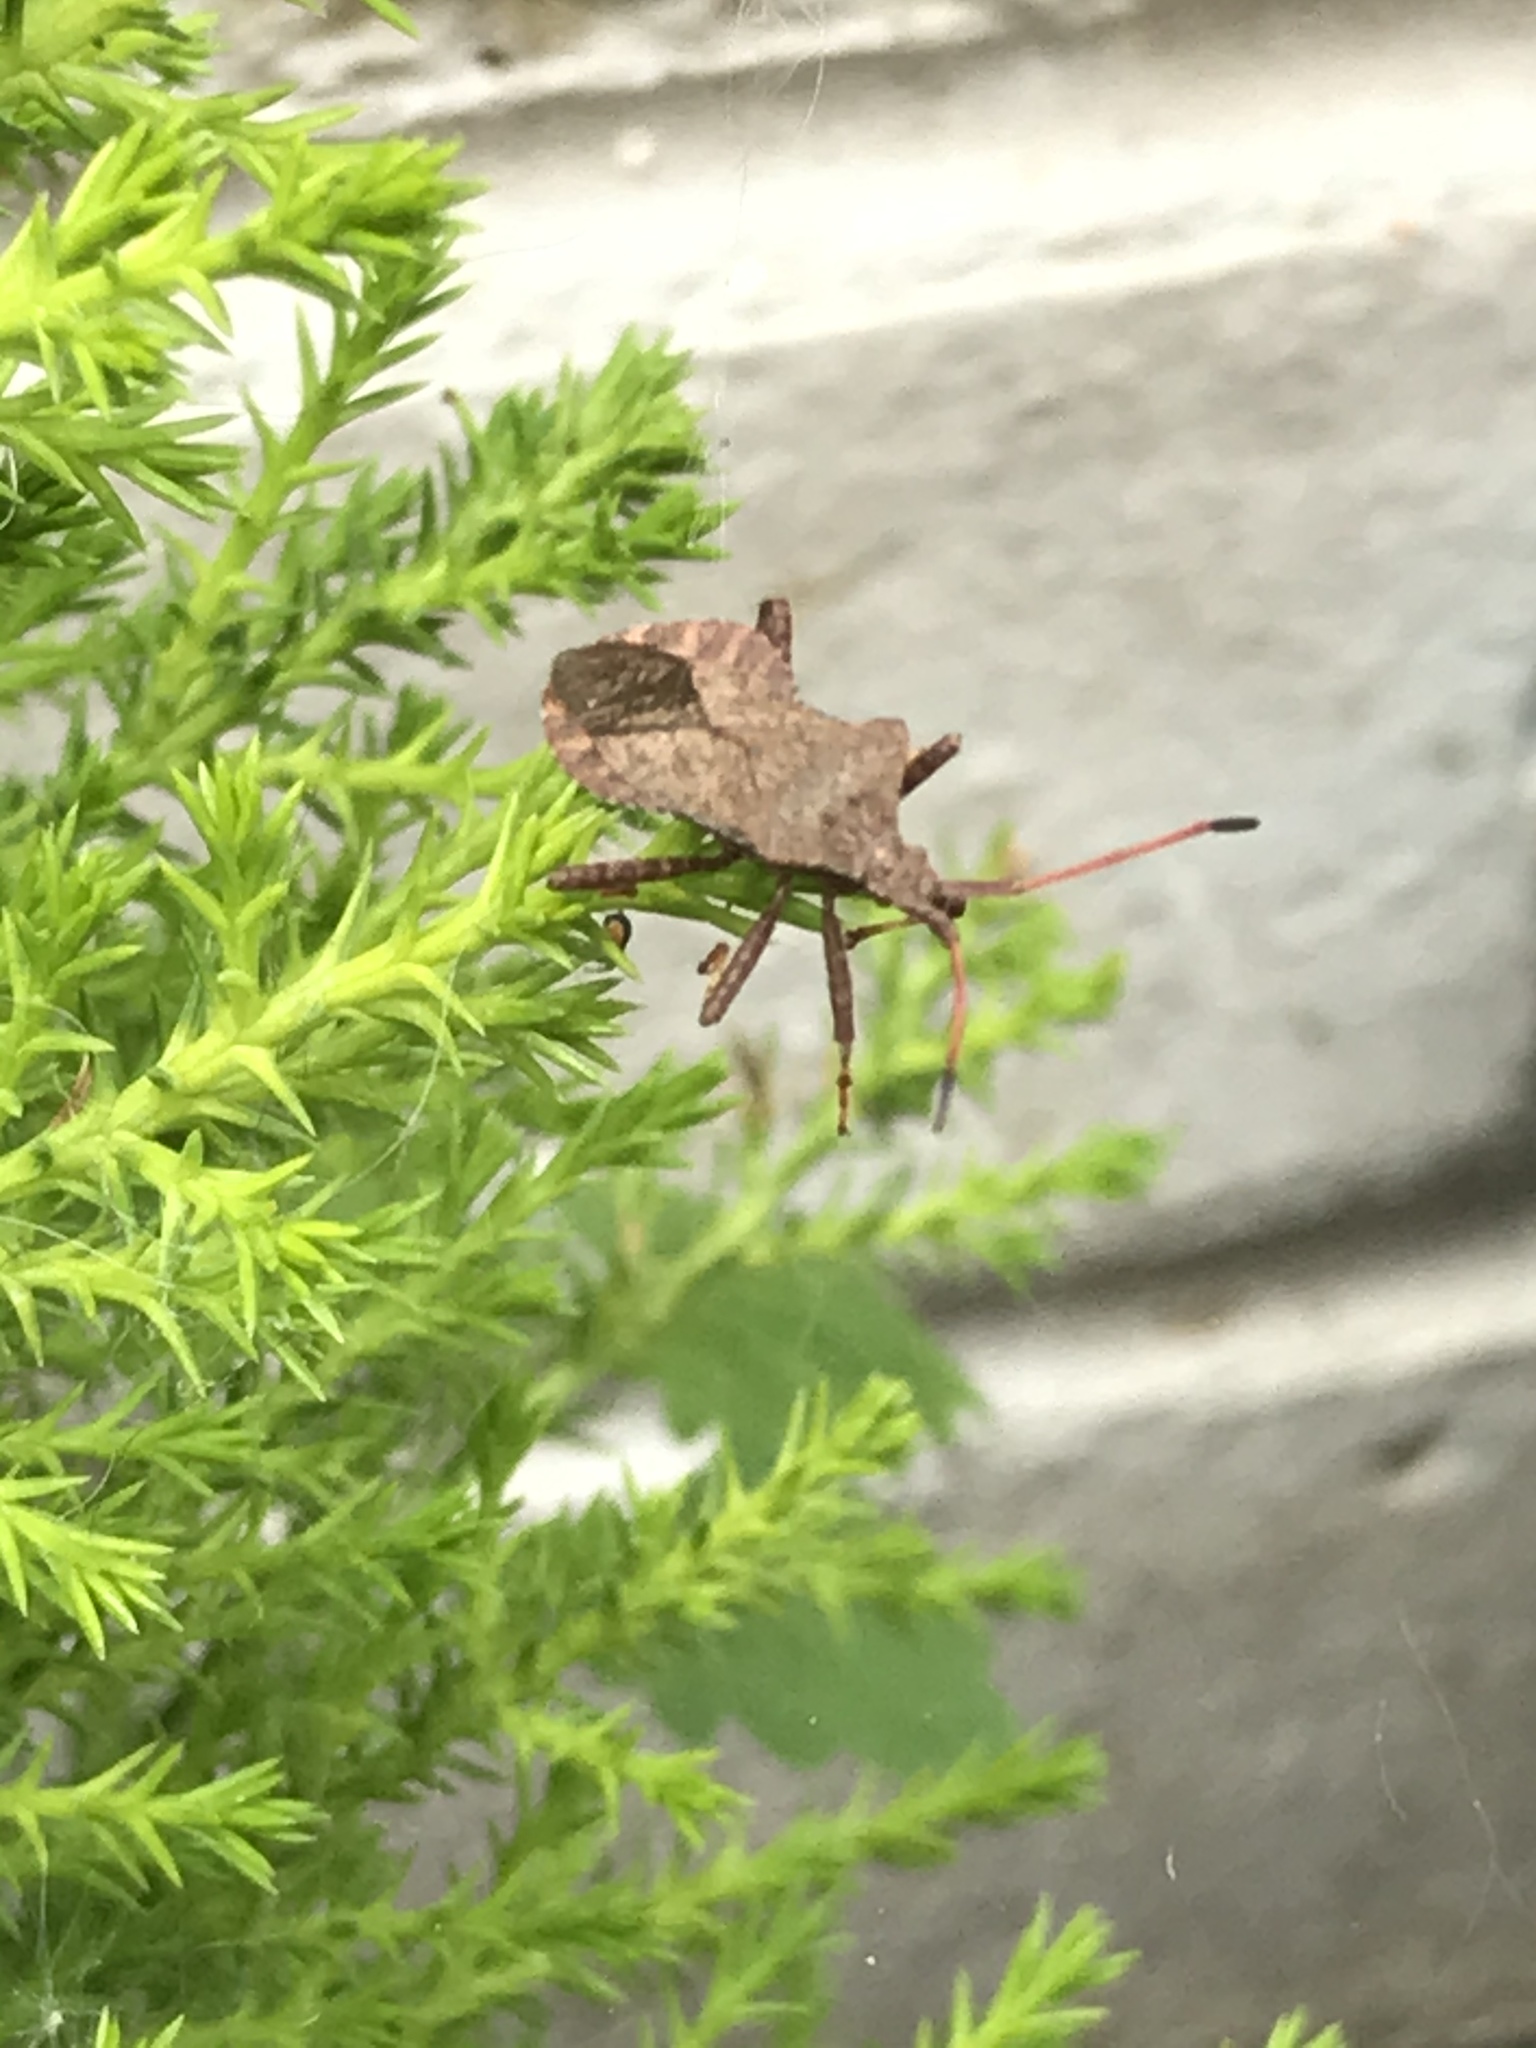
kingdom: Animalia
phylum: Arthropoda
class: Insecta
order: Hemiptera
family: Coreidae
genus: Coreus
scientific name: Coreus marginatus
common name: Dock bug
